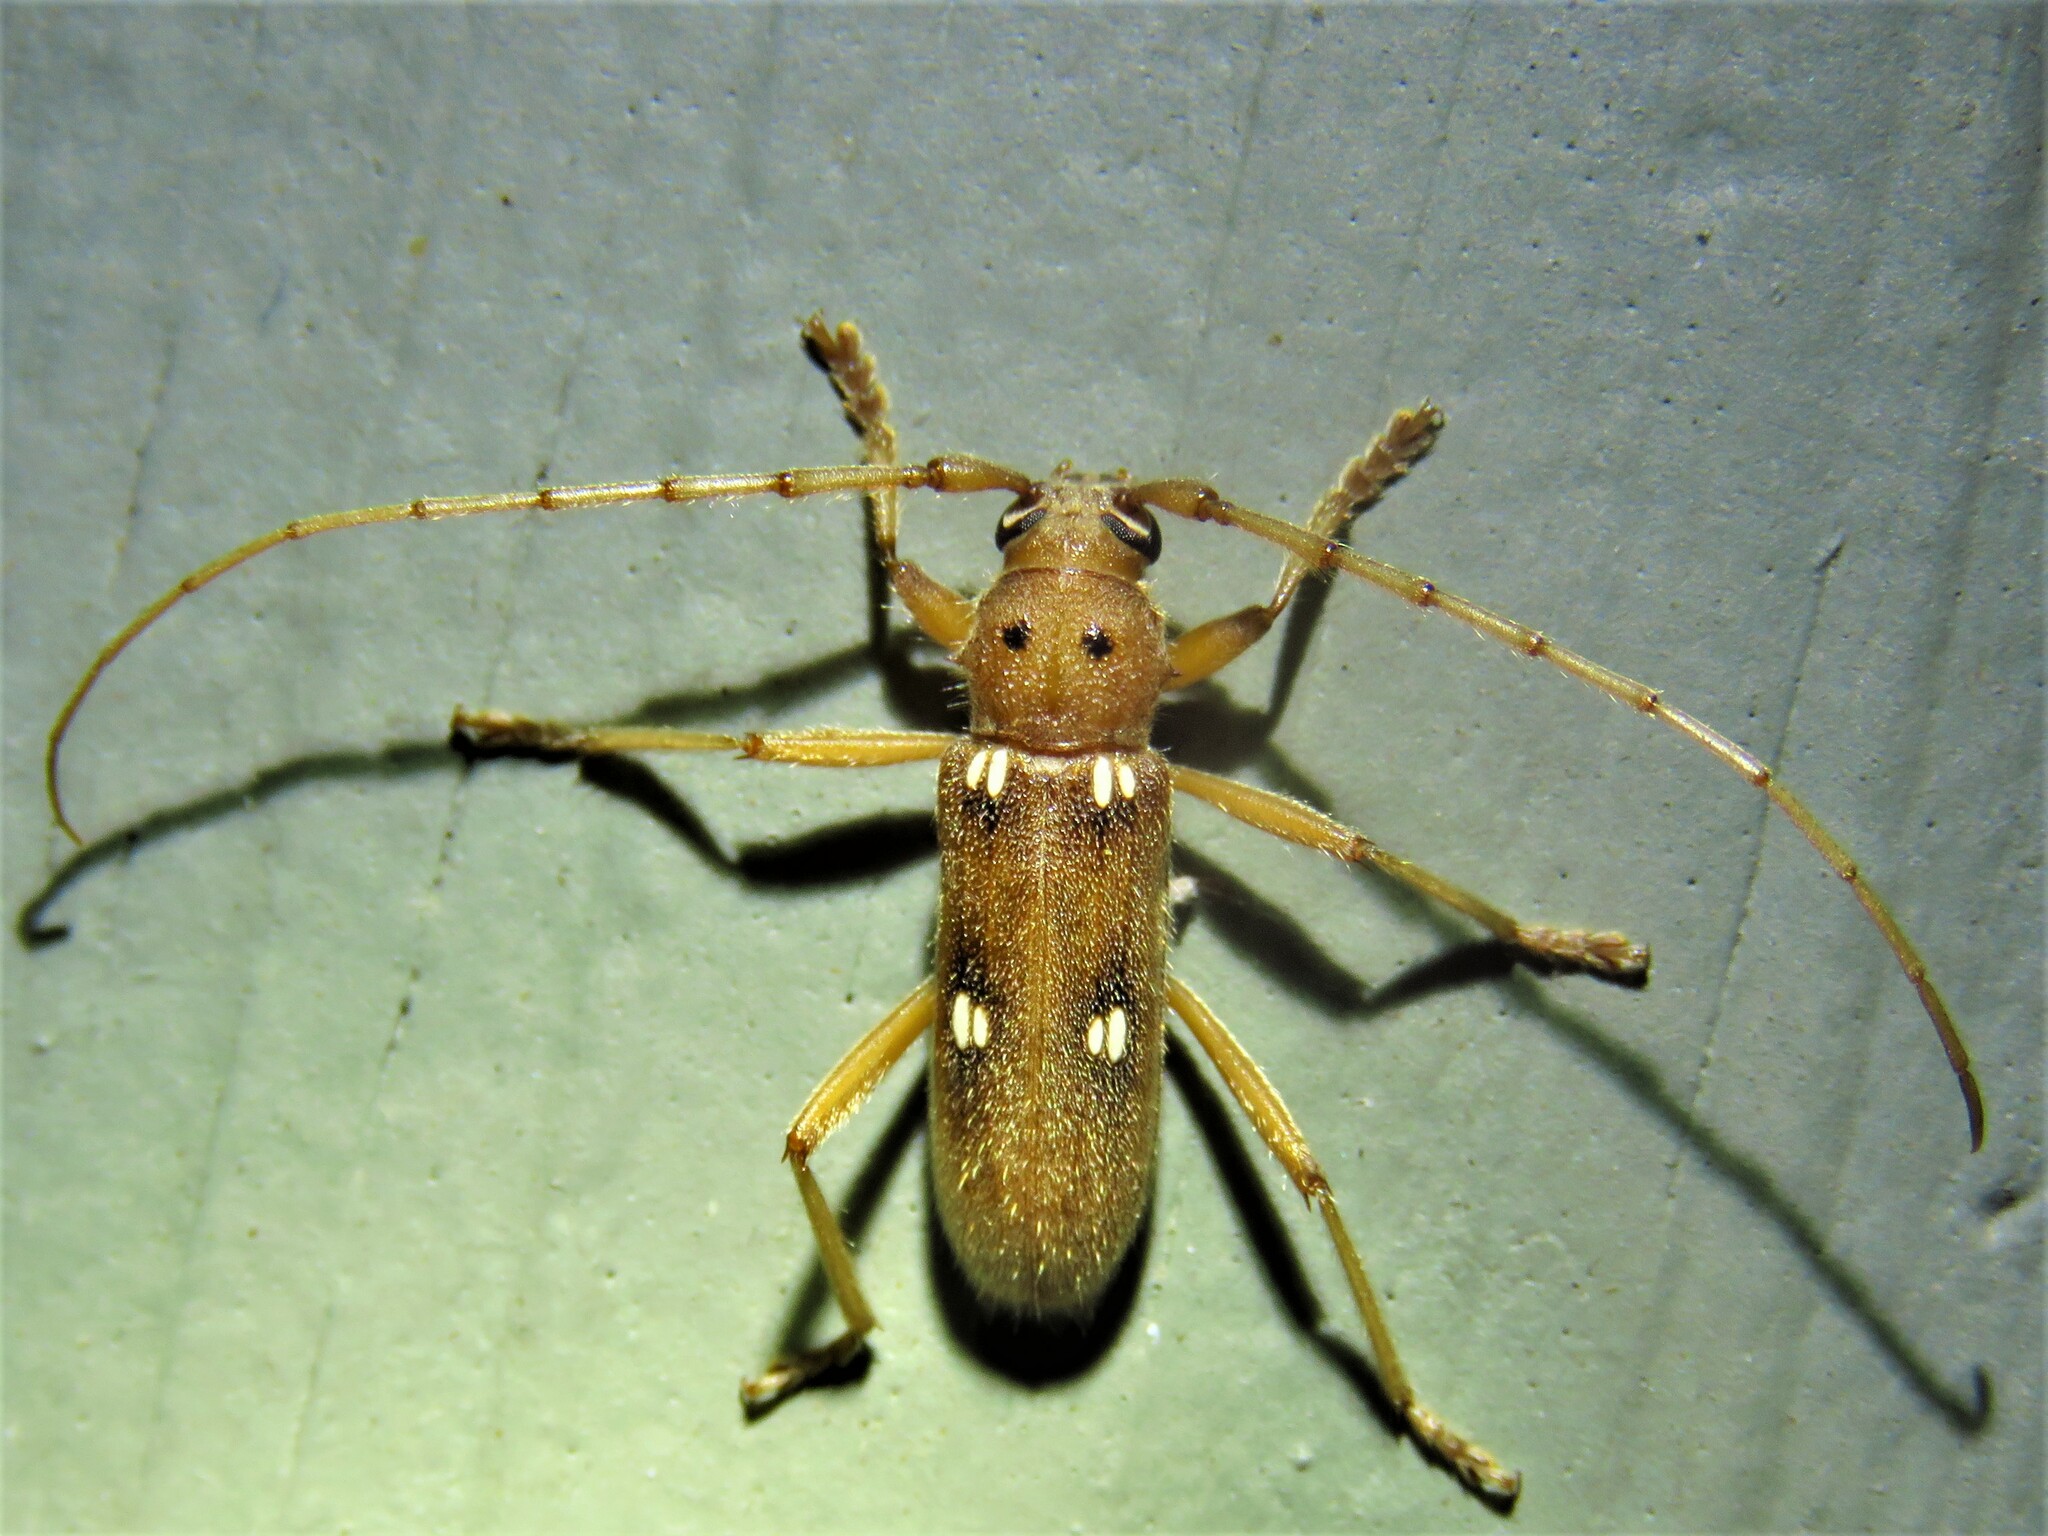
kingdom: Animalia
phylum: Arthropoda
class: Insecta
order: Coleoptera
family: Cerambycidae
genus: Eburia
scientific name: Eburia quadrigeminata
